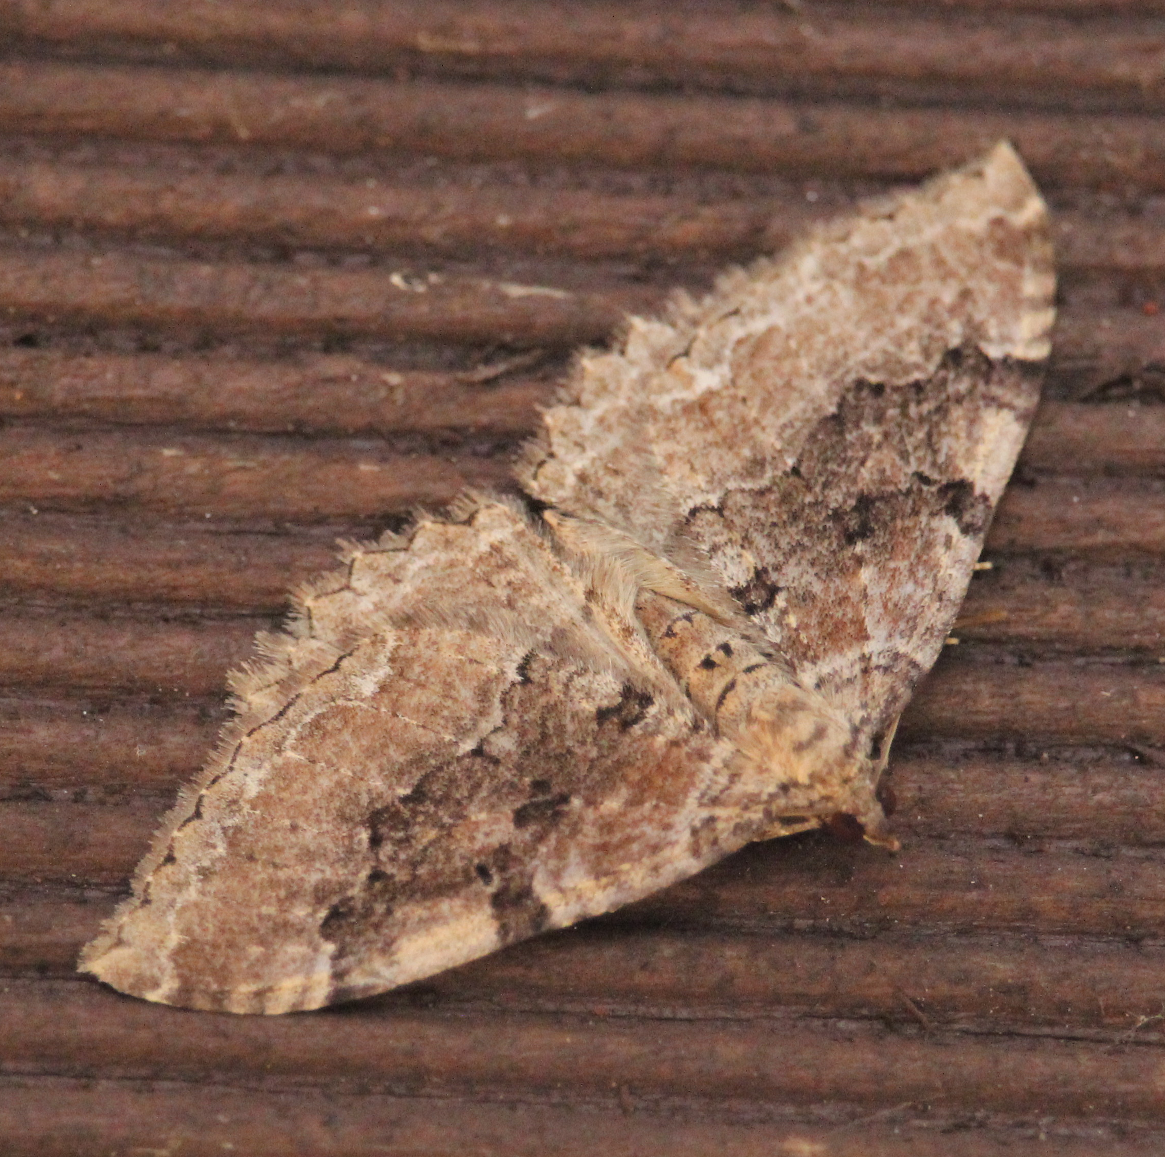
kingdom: Animalia
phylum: Arthropoda
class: Insecta
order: Lepidoptera
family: Geometridae
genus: Rheumaptera
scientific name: Rheumaptera Hydria cervinalis
